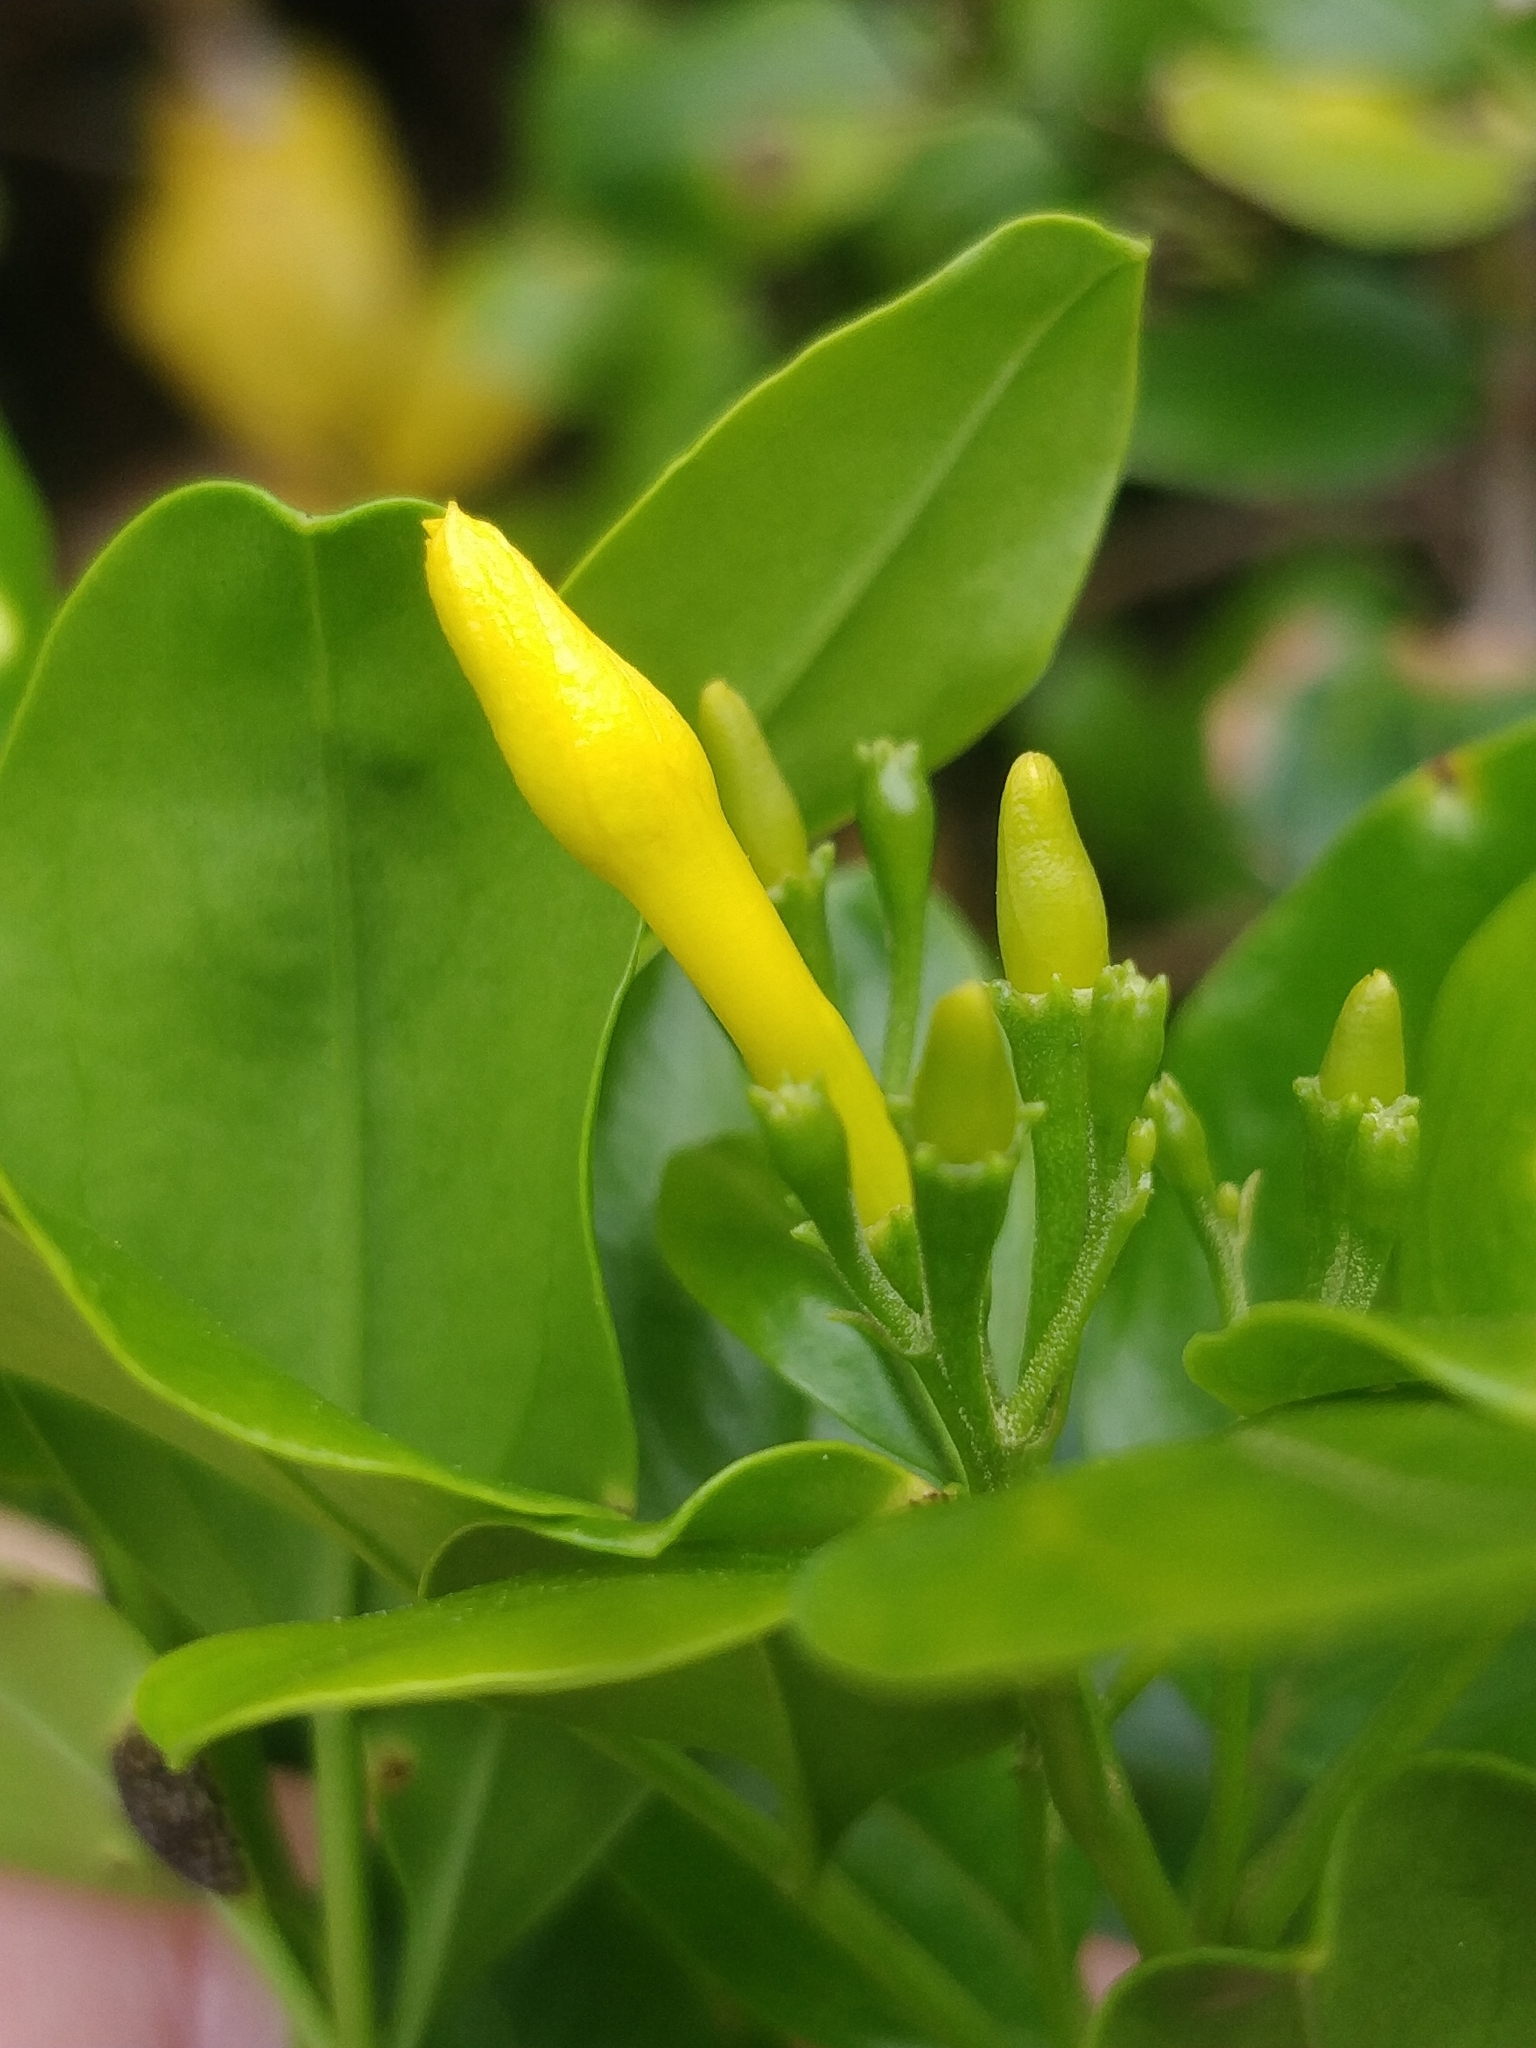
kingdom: Plantae
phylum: Tracheophyta
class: Magnoliopsida
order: Lamiales
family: Oleaceae
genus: Chrysojasminum
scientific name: Chrysojasminum odoratissimum
